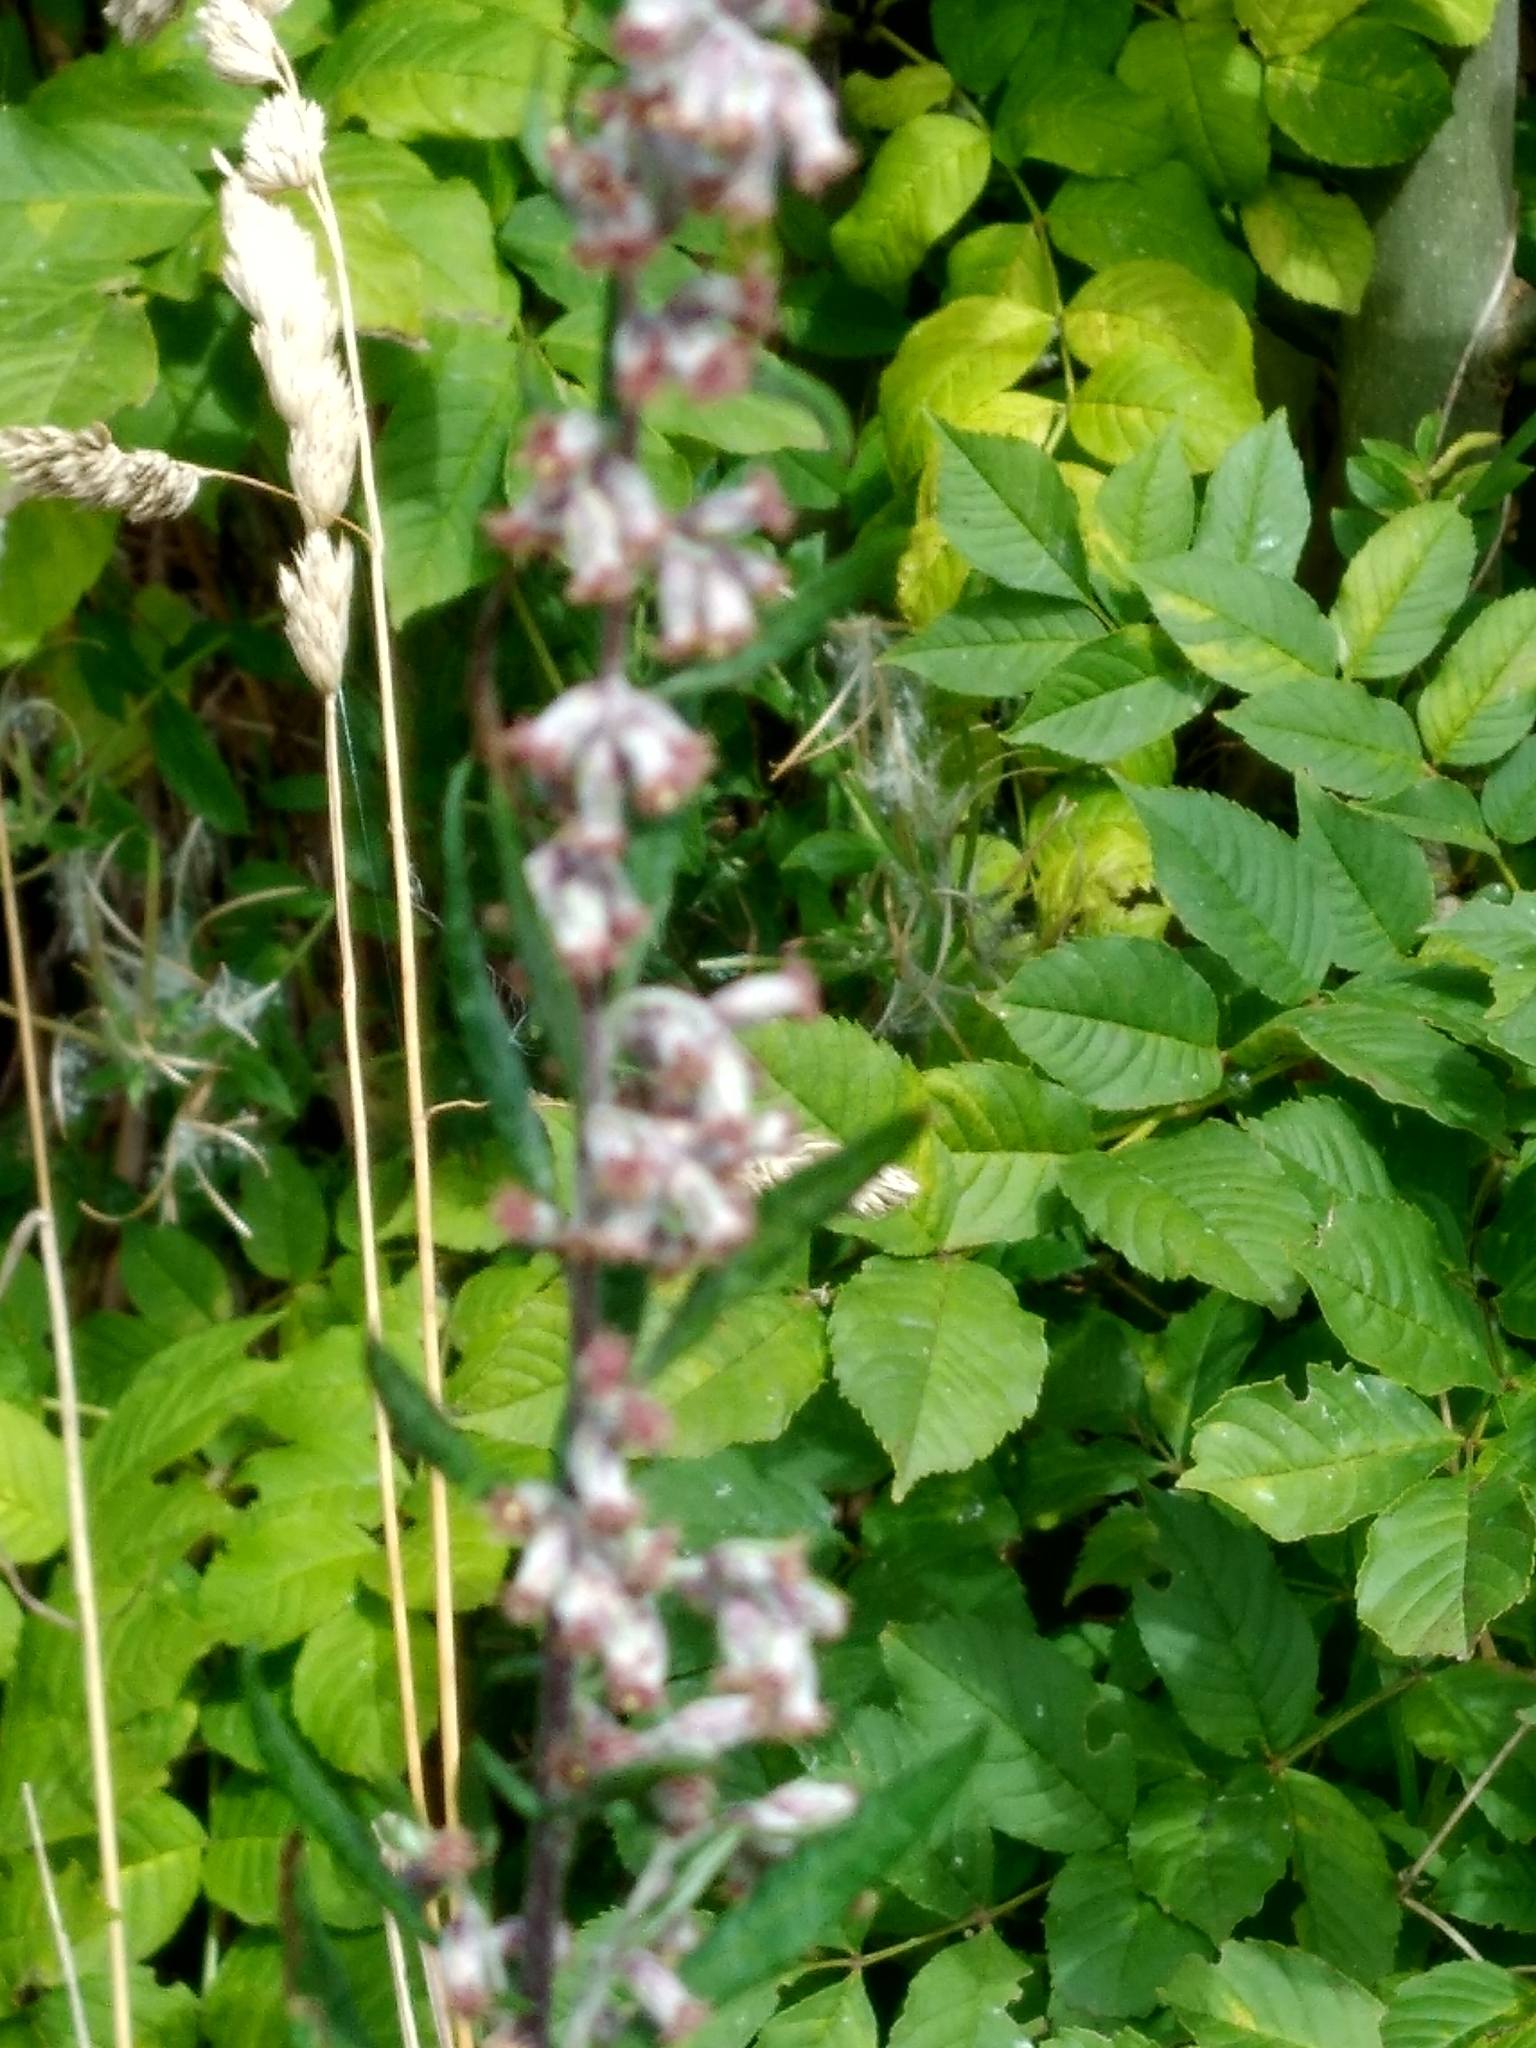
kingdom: Plantae
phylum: Tracheophyta
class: Magnoliopsida
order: Asterales
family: Asteraceae
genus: Artemisia
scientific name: Artemisia vulgaris
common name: Mugwort
